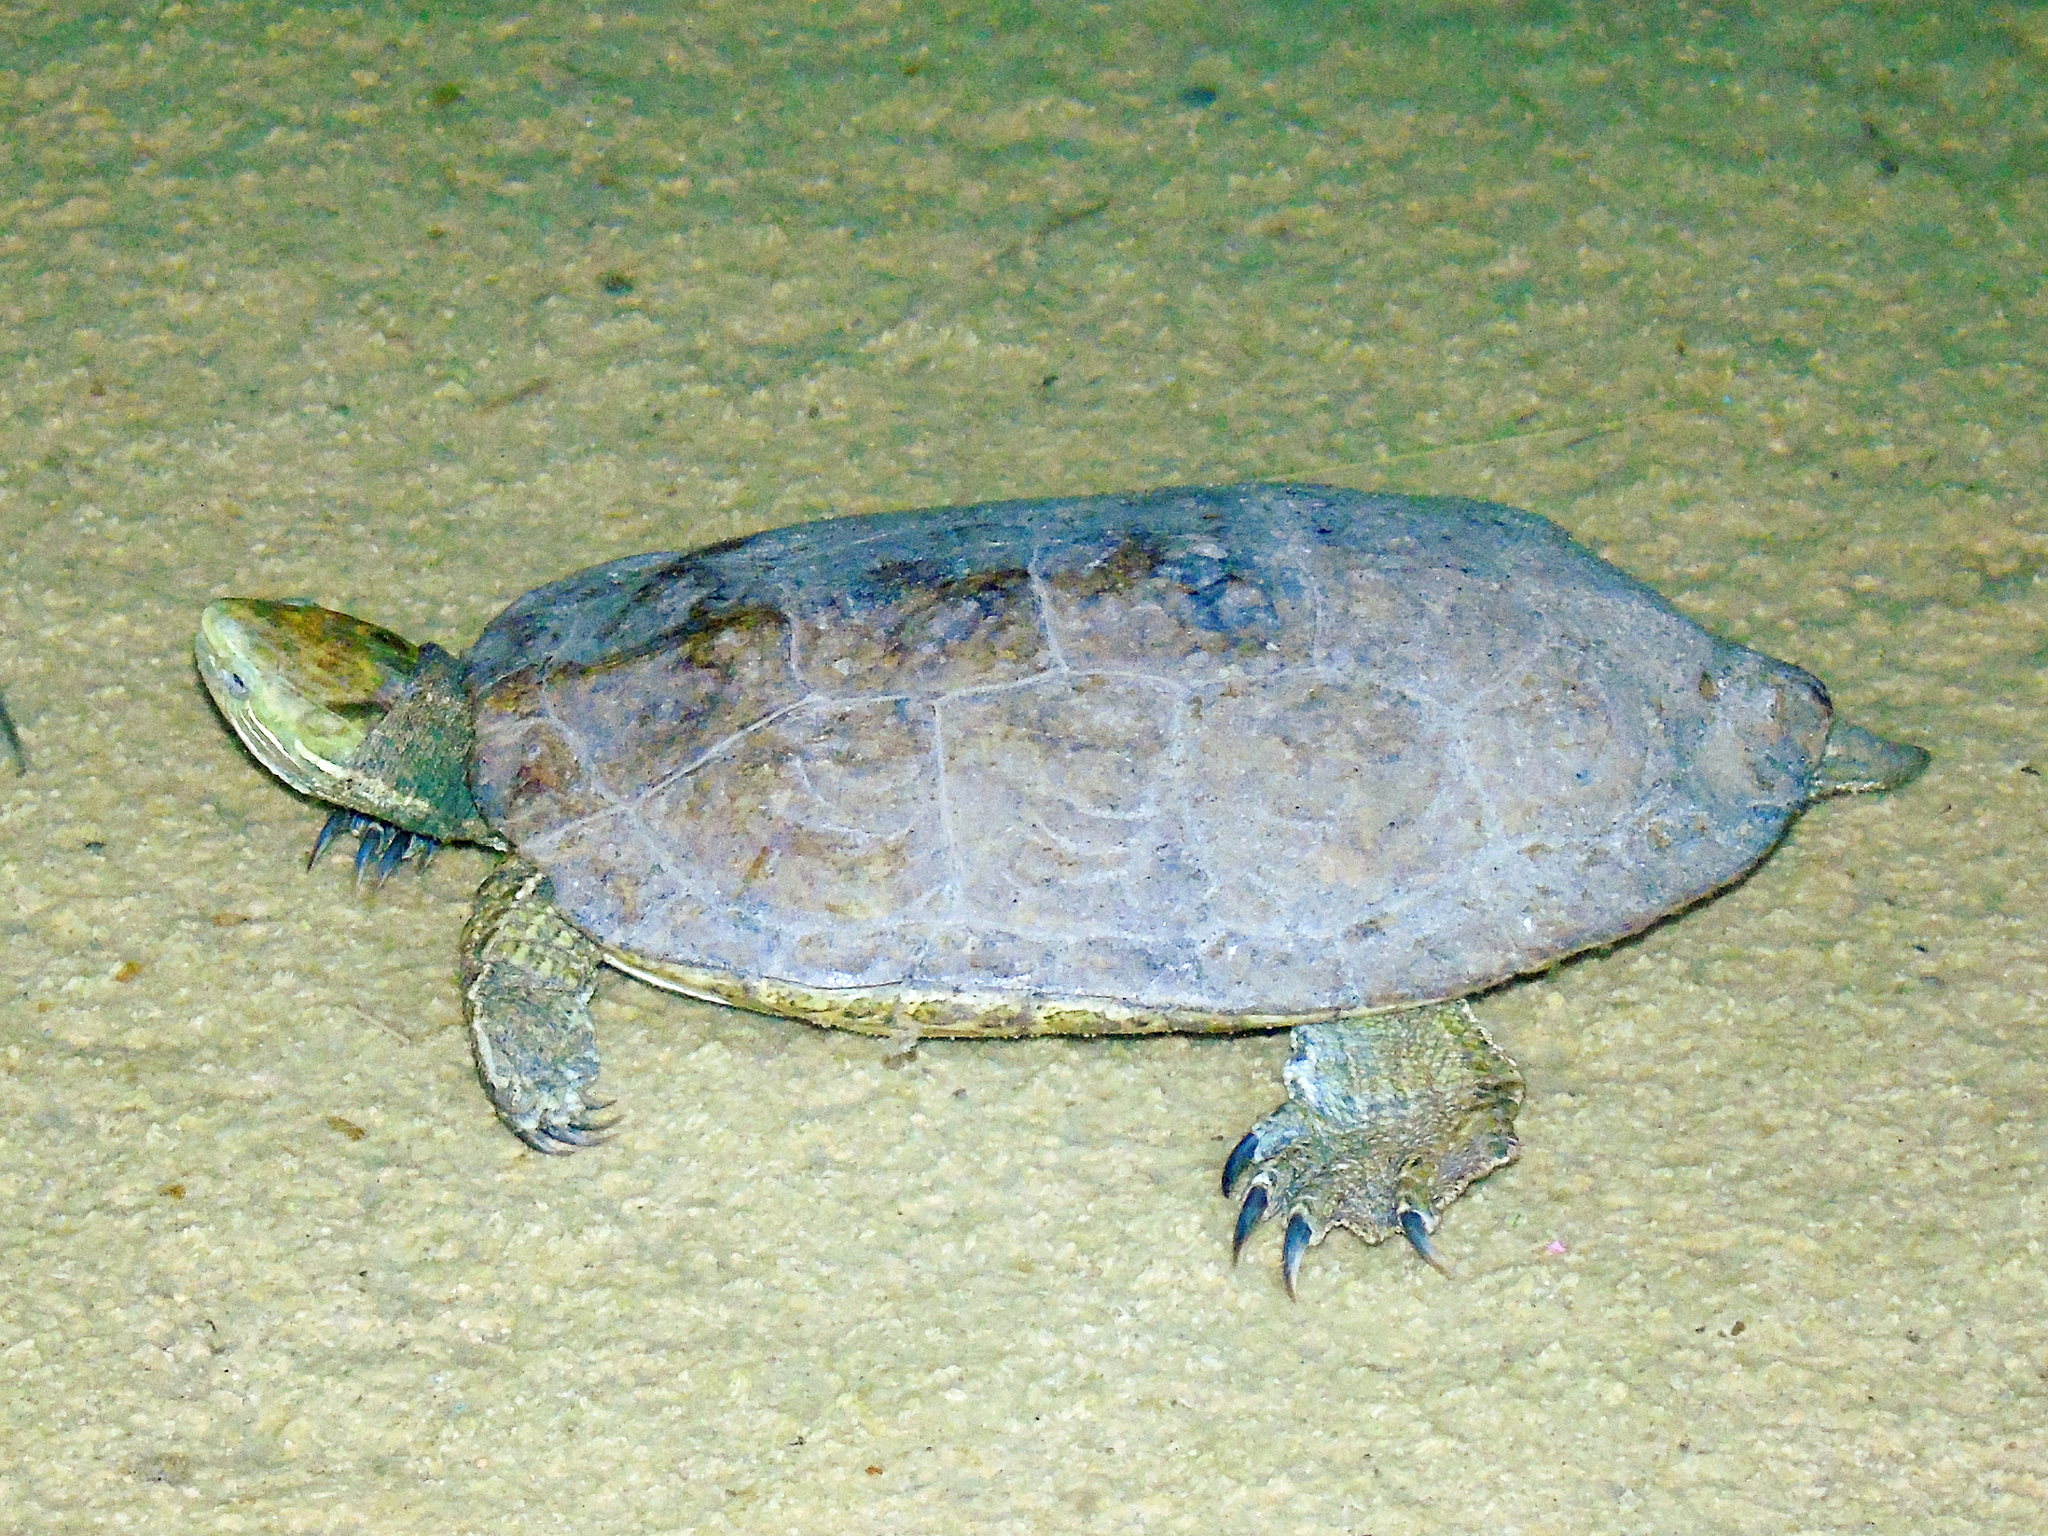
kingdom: Animalia
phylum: Chordata
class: Testudines
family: Geoemydidae
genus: Mauremys
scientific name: Mauremys caspica
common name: Caspian turtle
